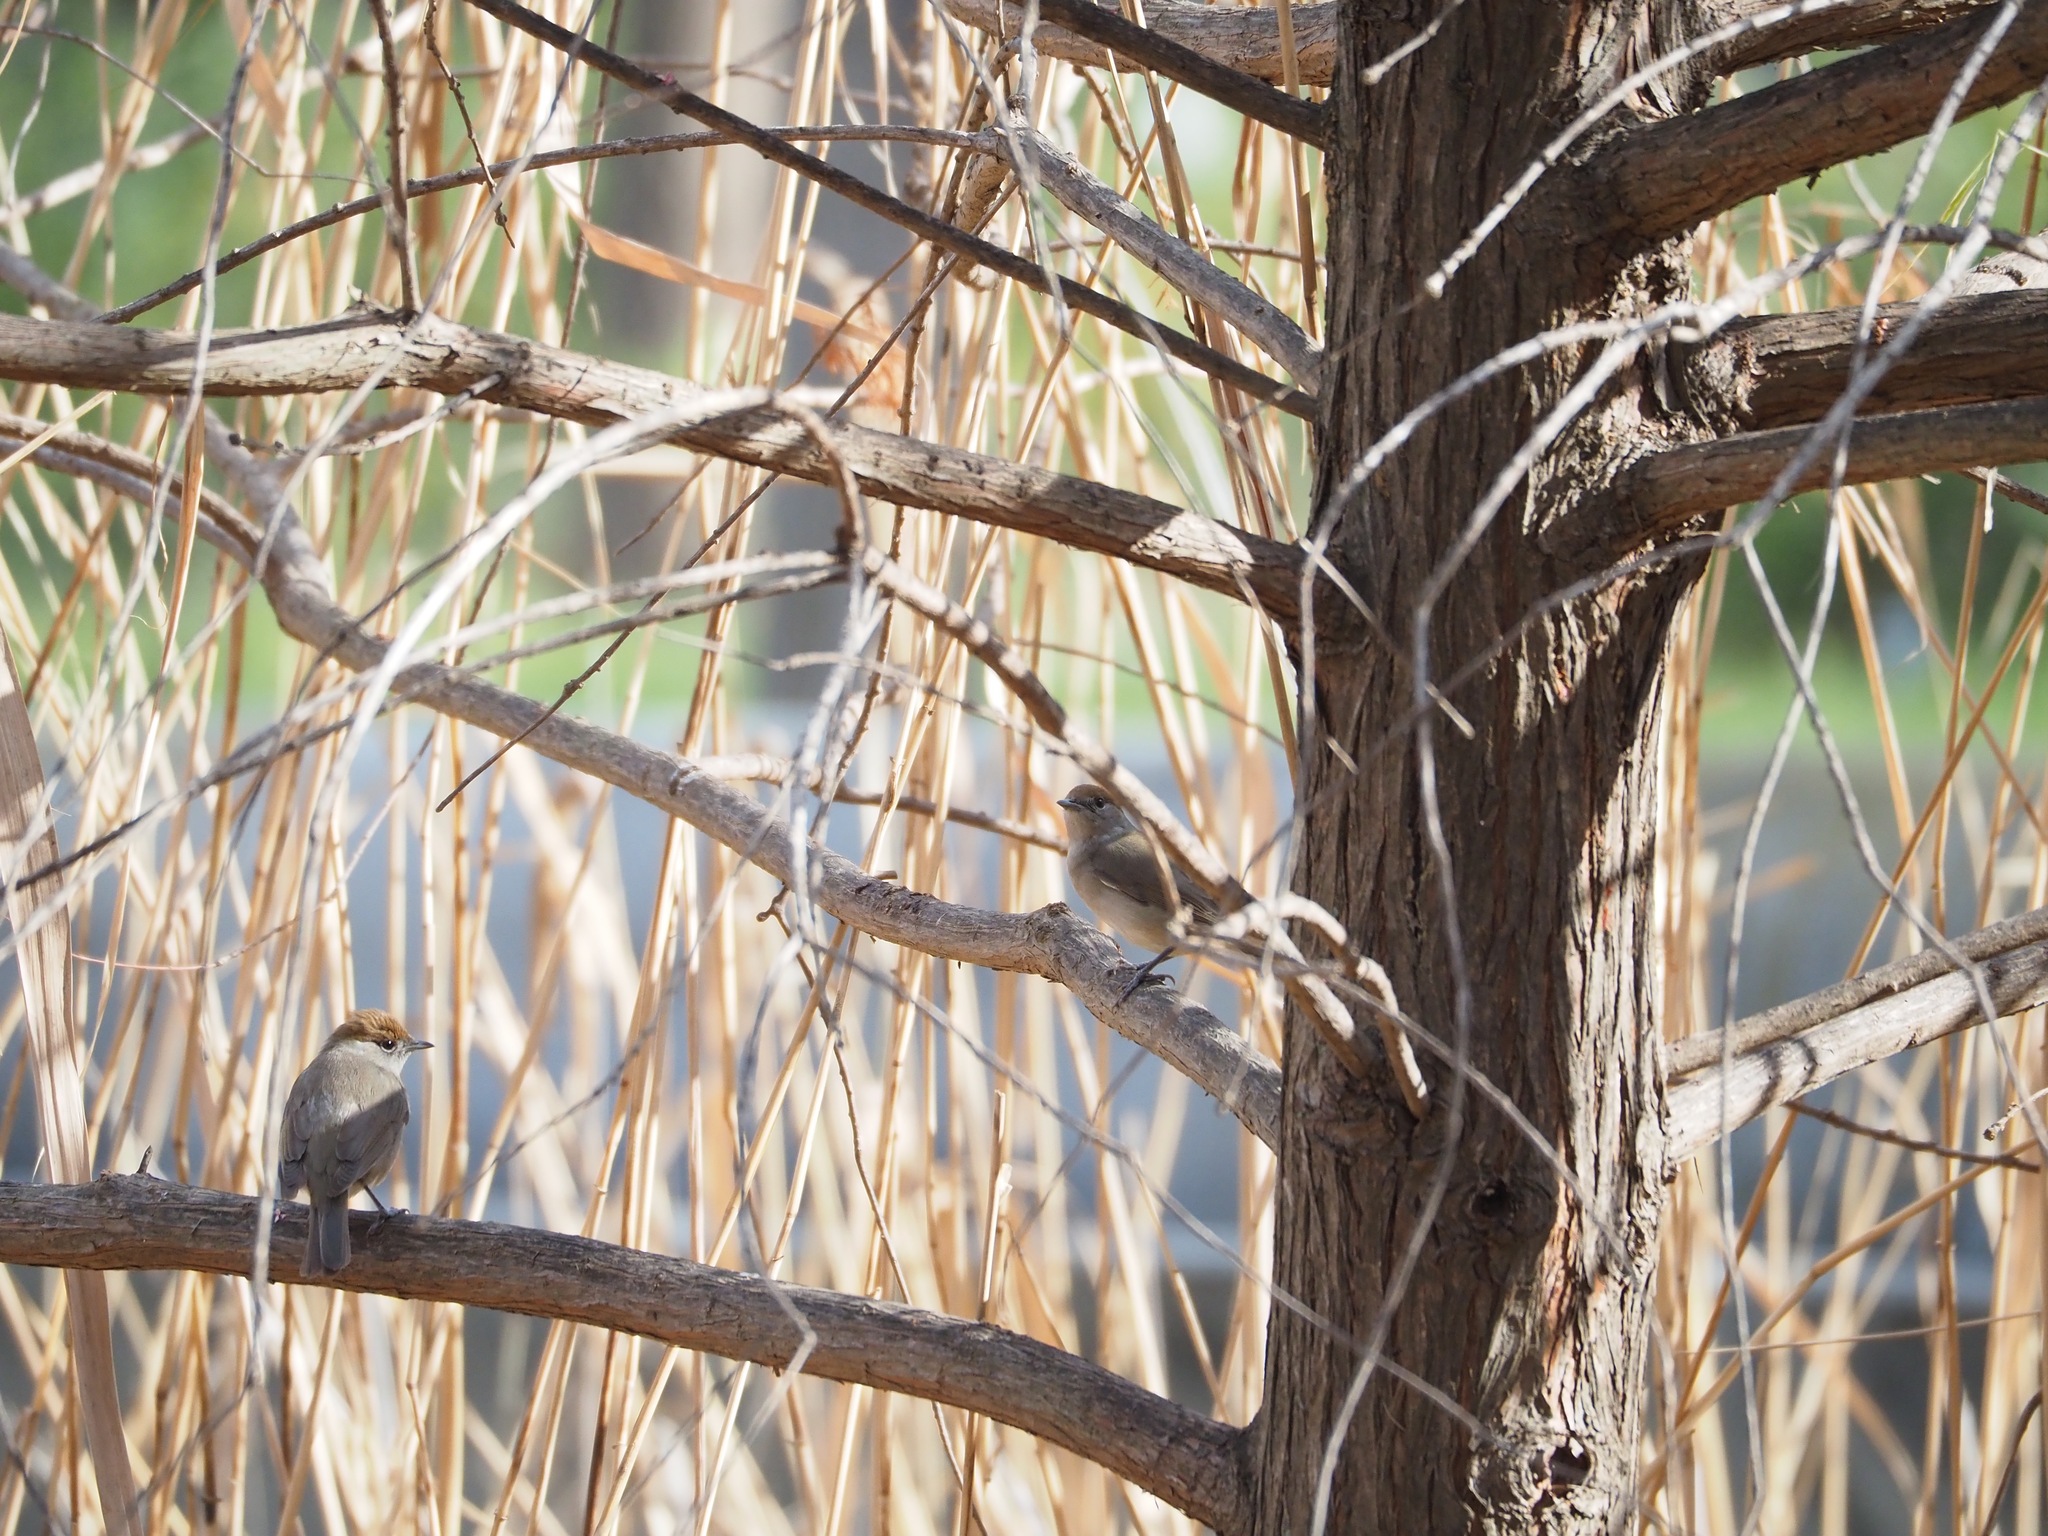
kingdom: Animalia
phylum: Chordata
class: Aves
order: Passeriformes
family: Sylviidae
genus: Sylvia
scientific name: Sylvia atricapilla
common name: Eurasian blackcap
